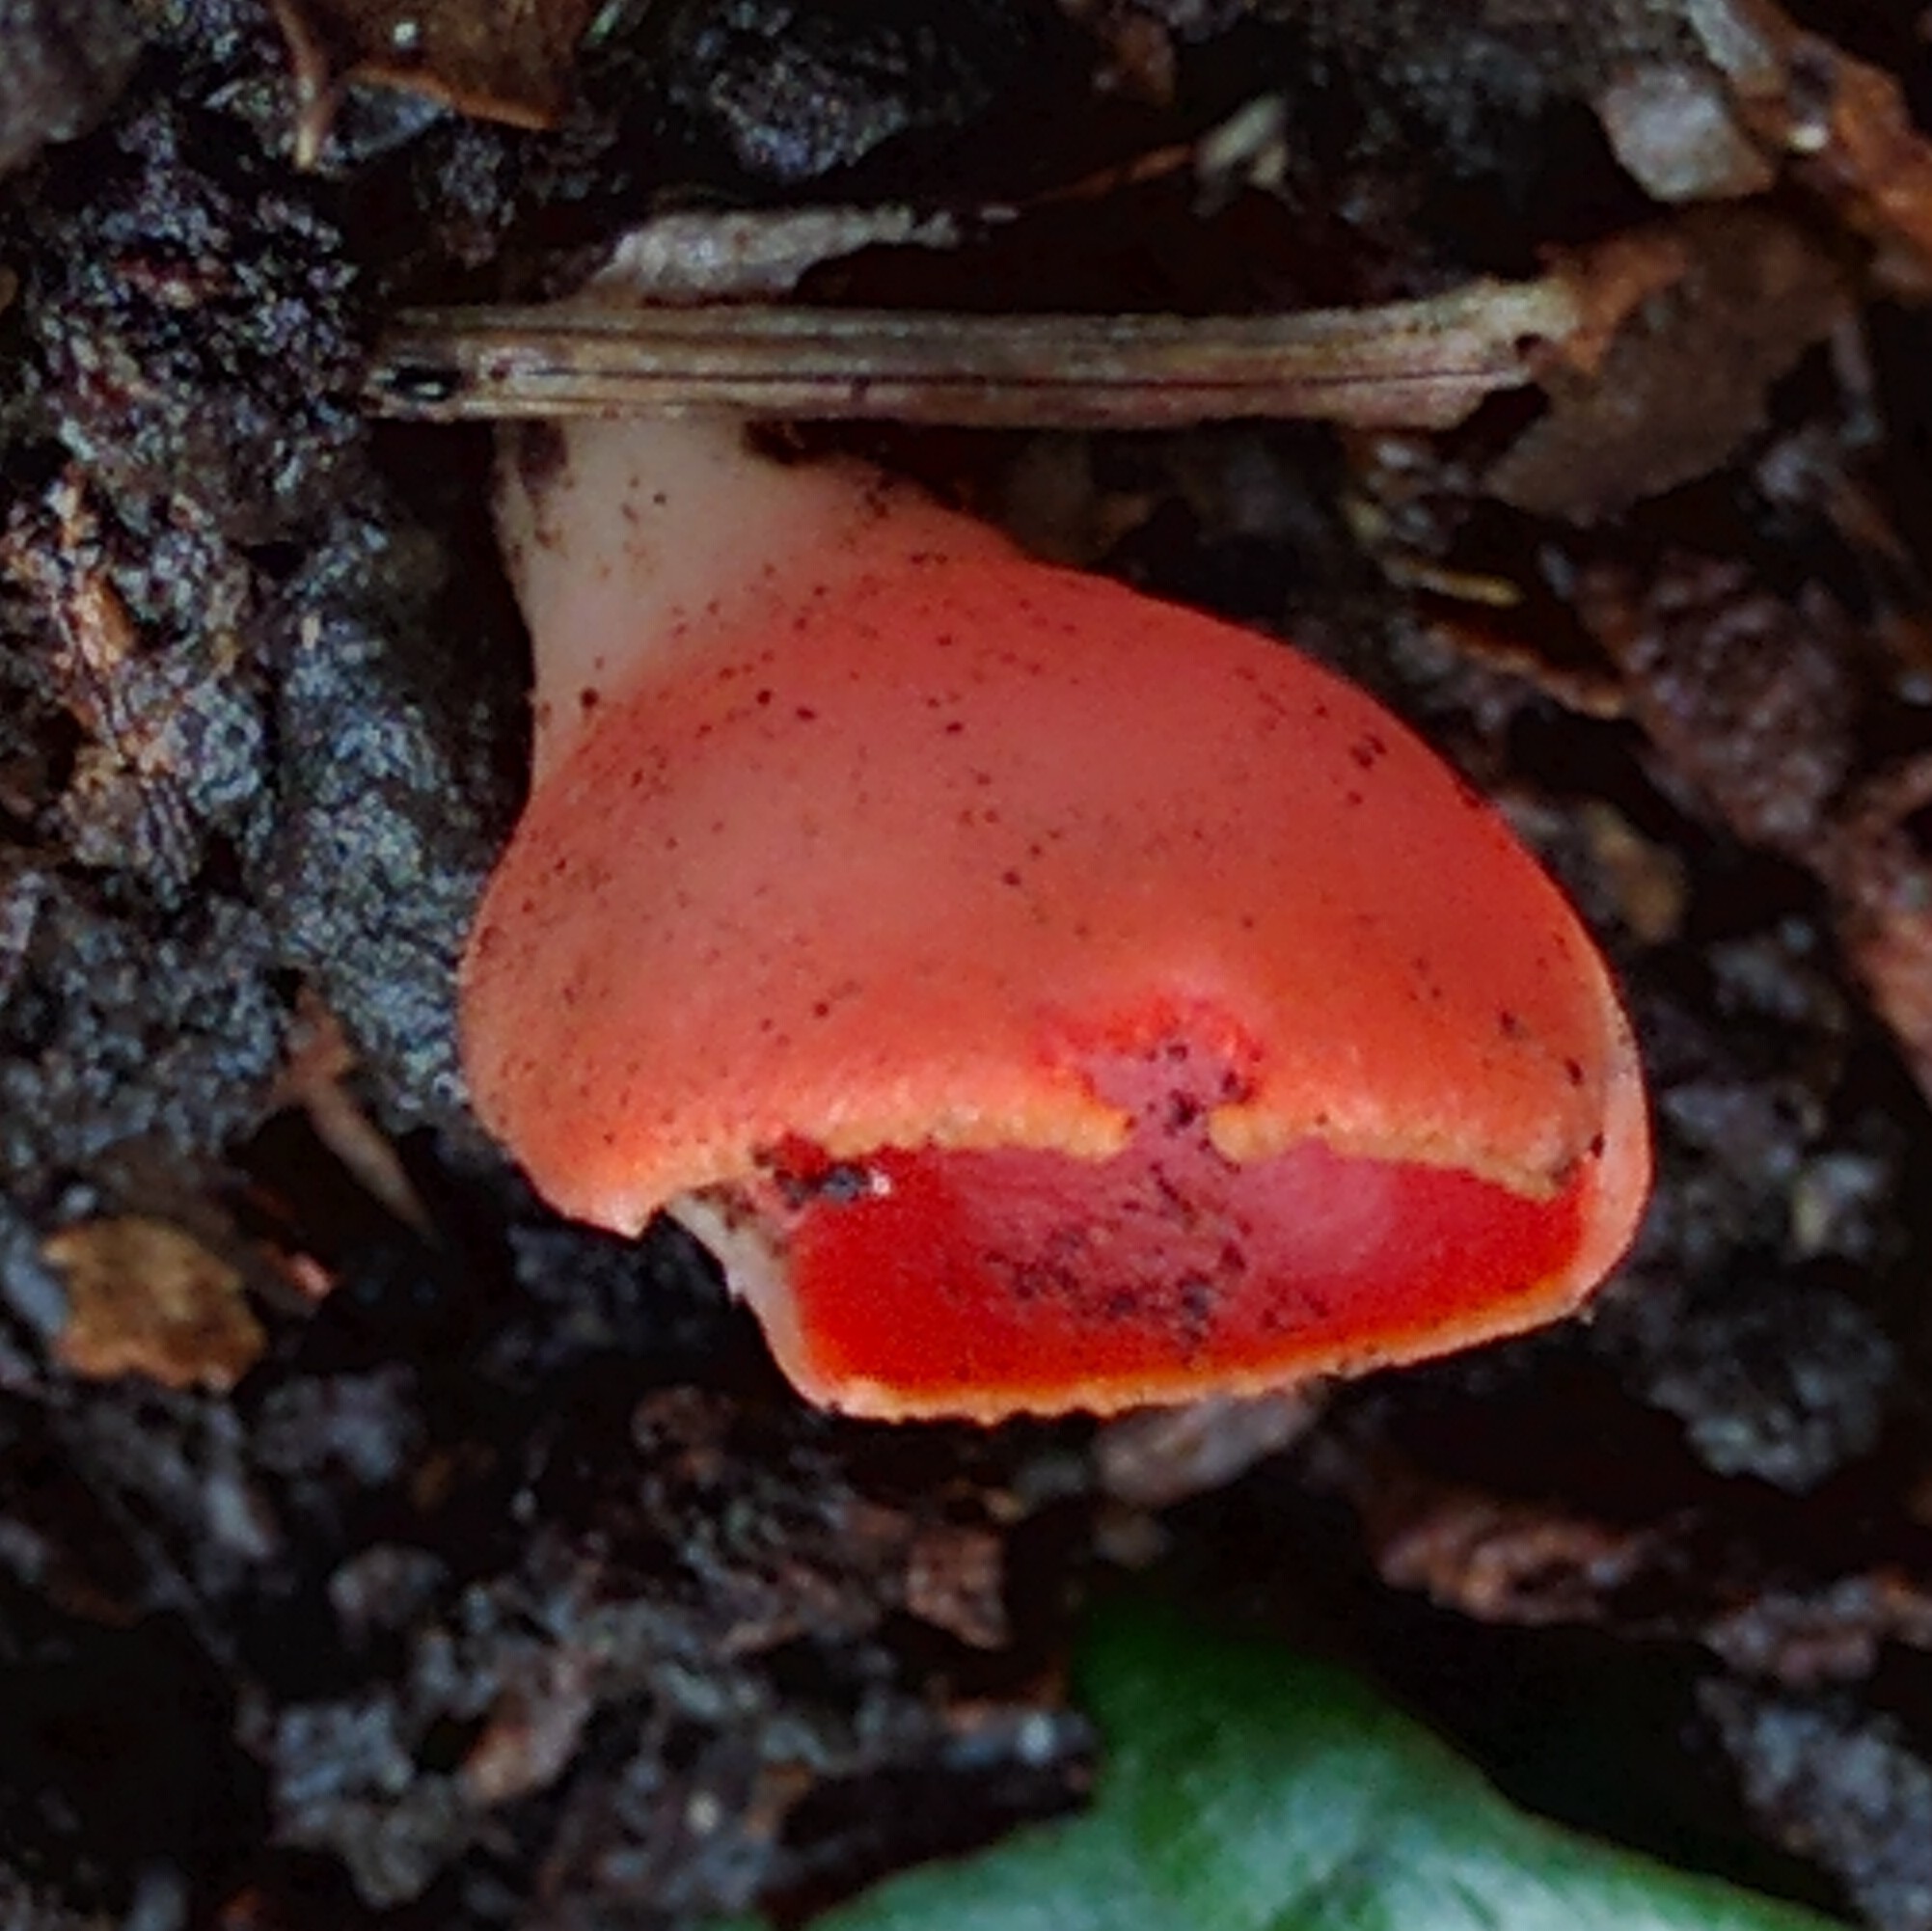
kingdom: Fungi
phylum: Ascomycota
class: Pezizomycetes
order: Pezizales
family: Sarcoscyphaceae
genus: Sarcoscypha
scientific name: Sarcoscypha coccinea
